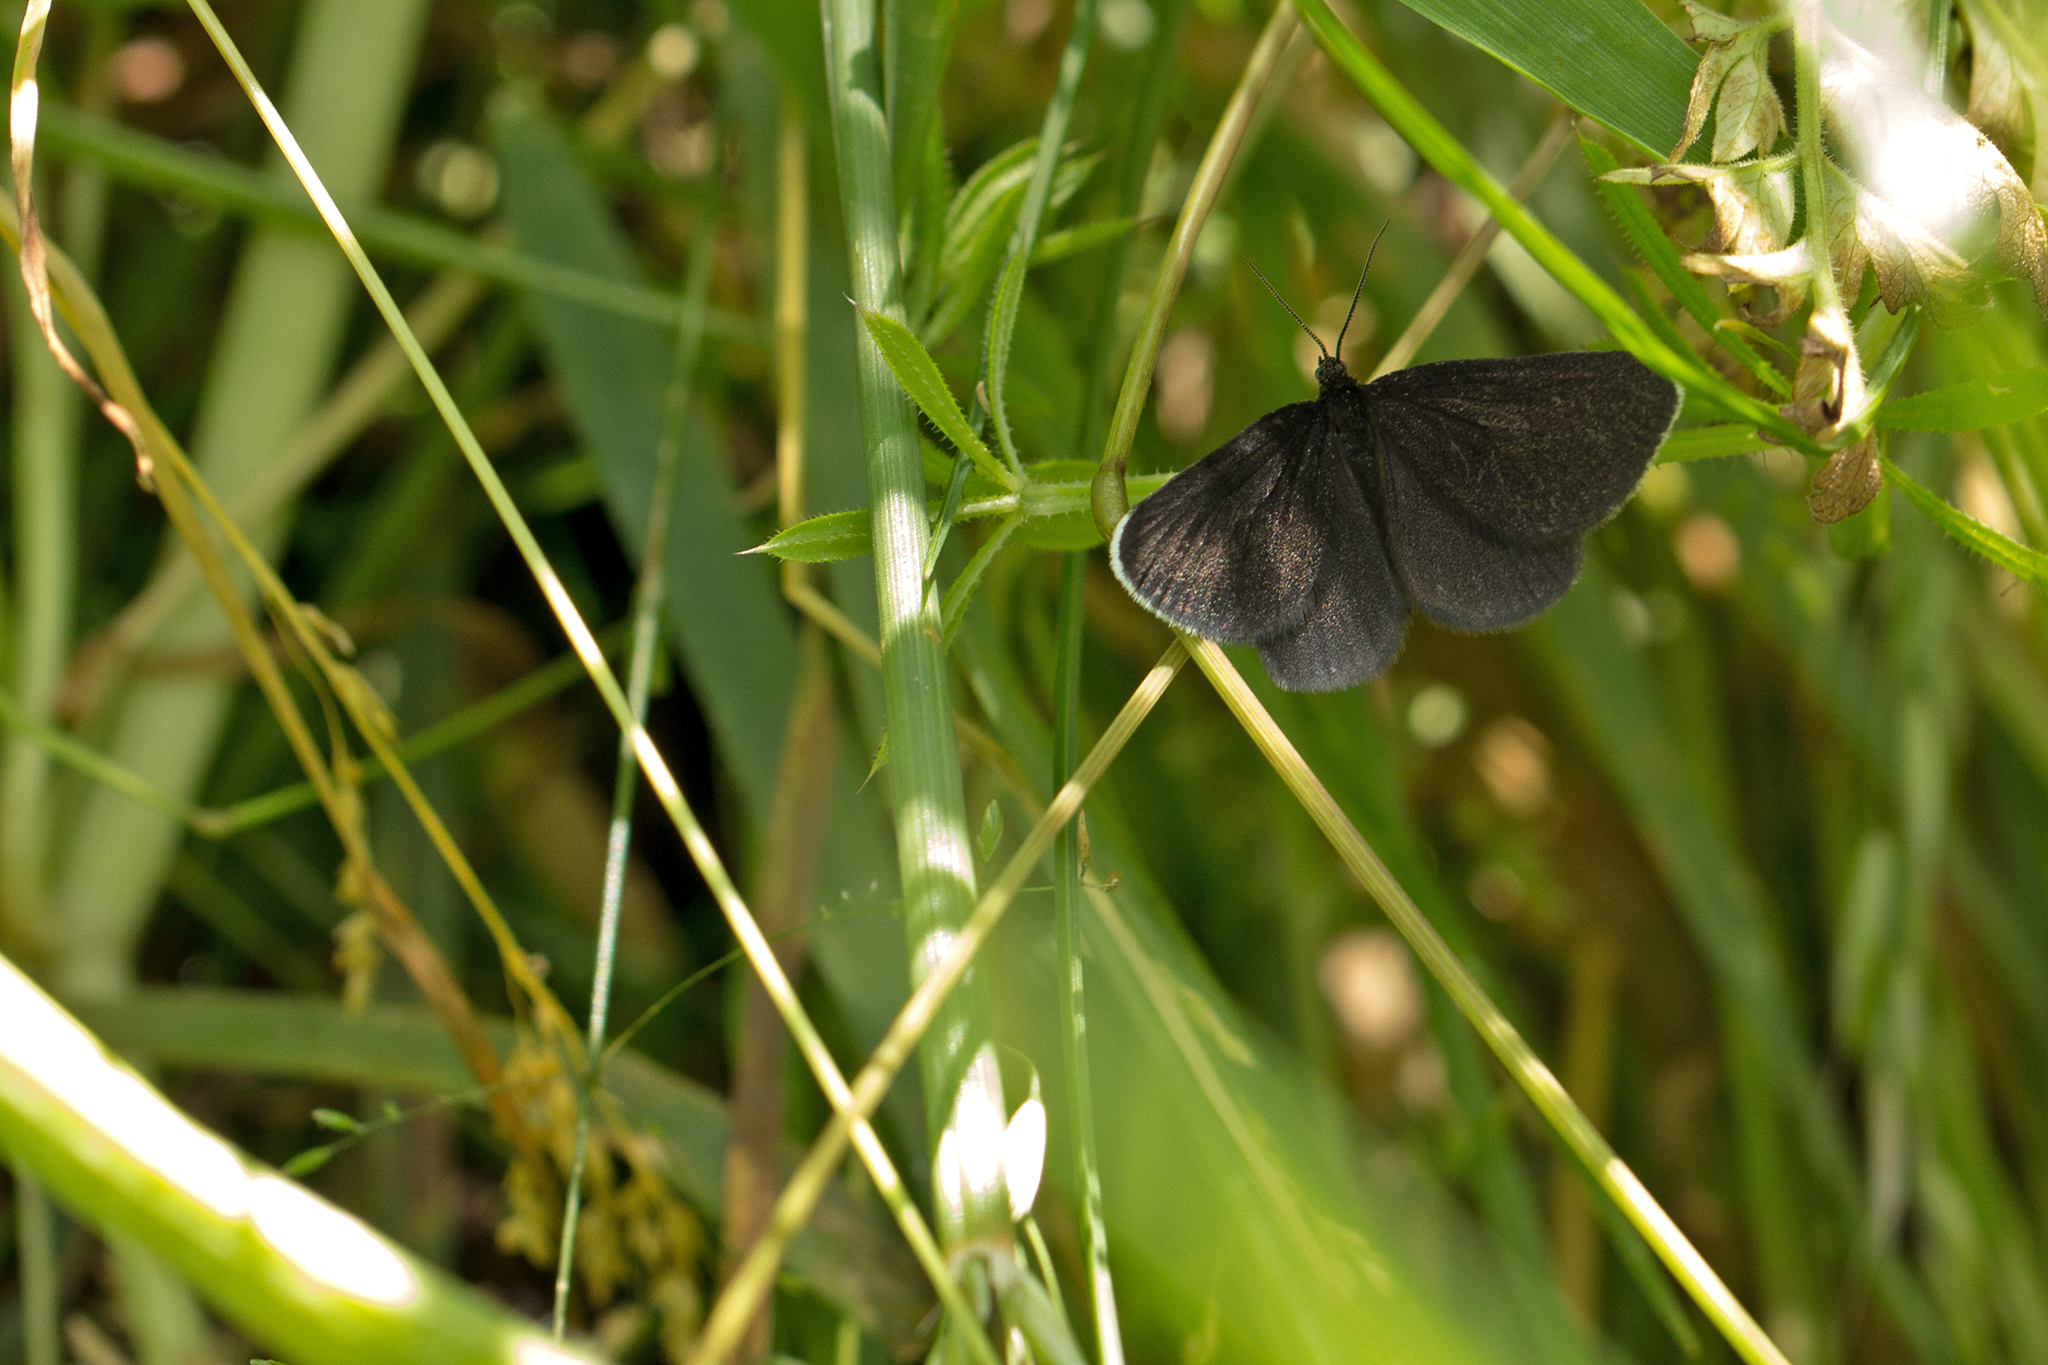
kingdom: Animalia
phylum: Arthropoda
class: Insecta
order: Lepidoptera
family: Geometridae
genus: Odezia
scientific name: Odezia atrata
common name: Chimney sweeper
